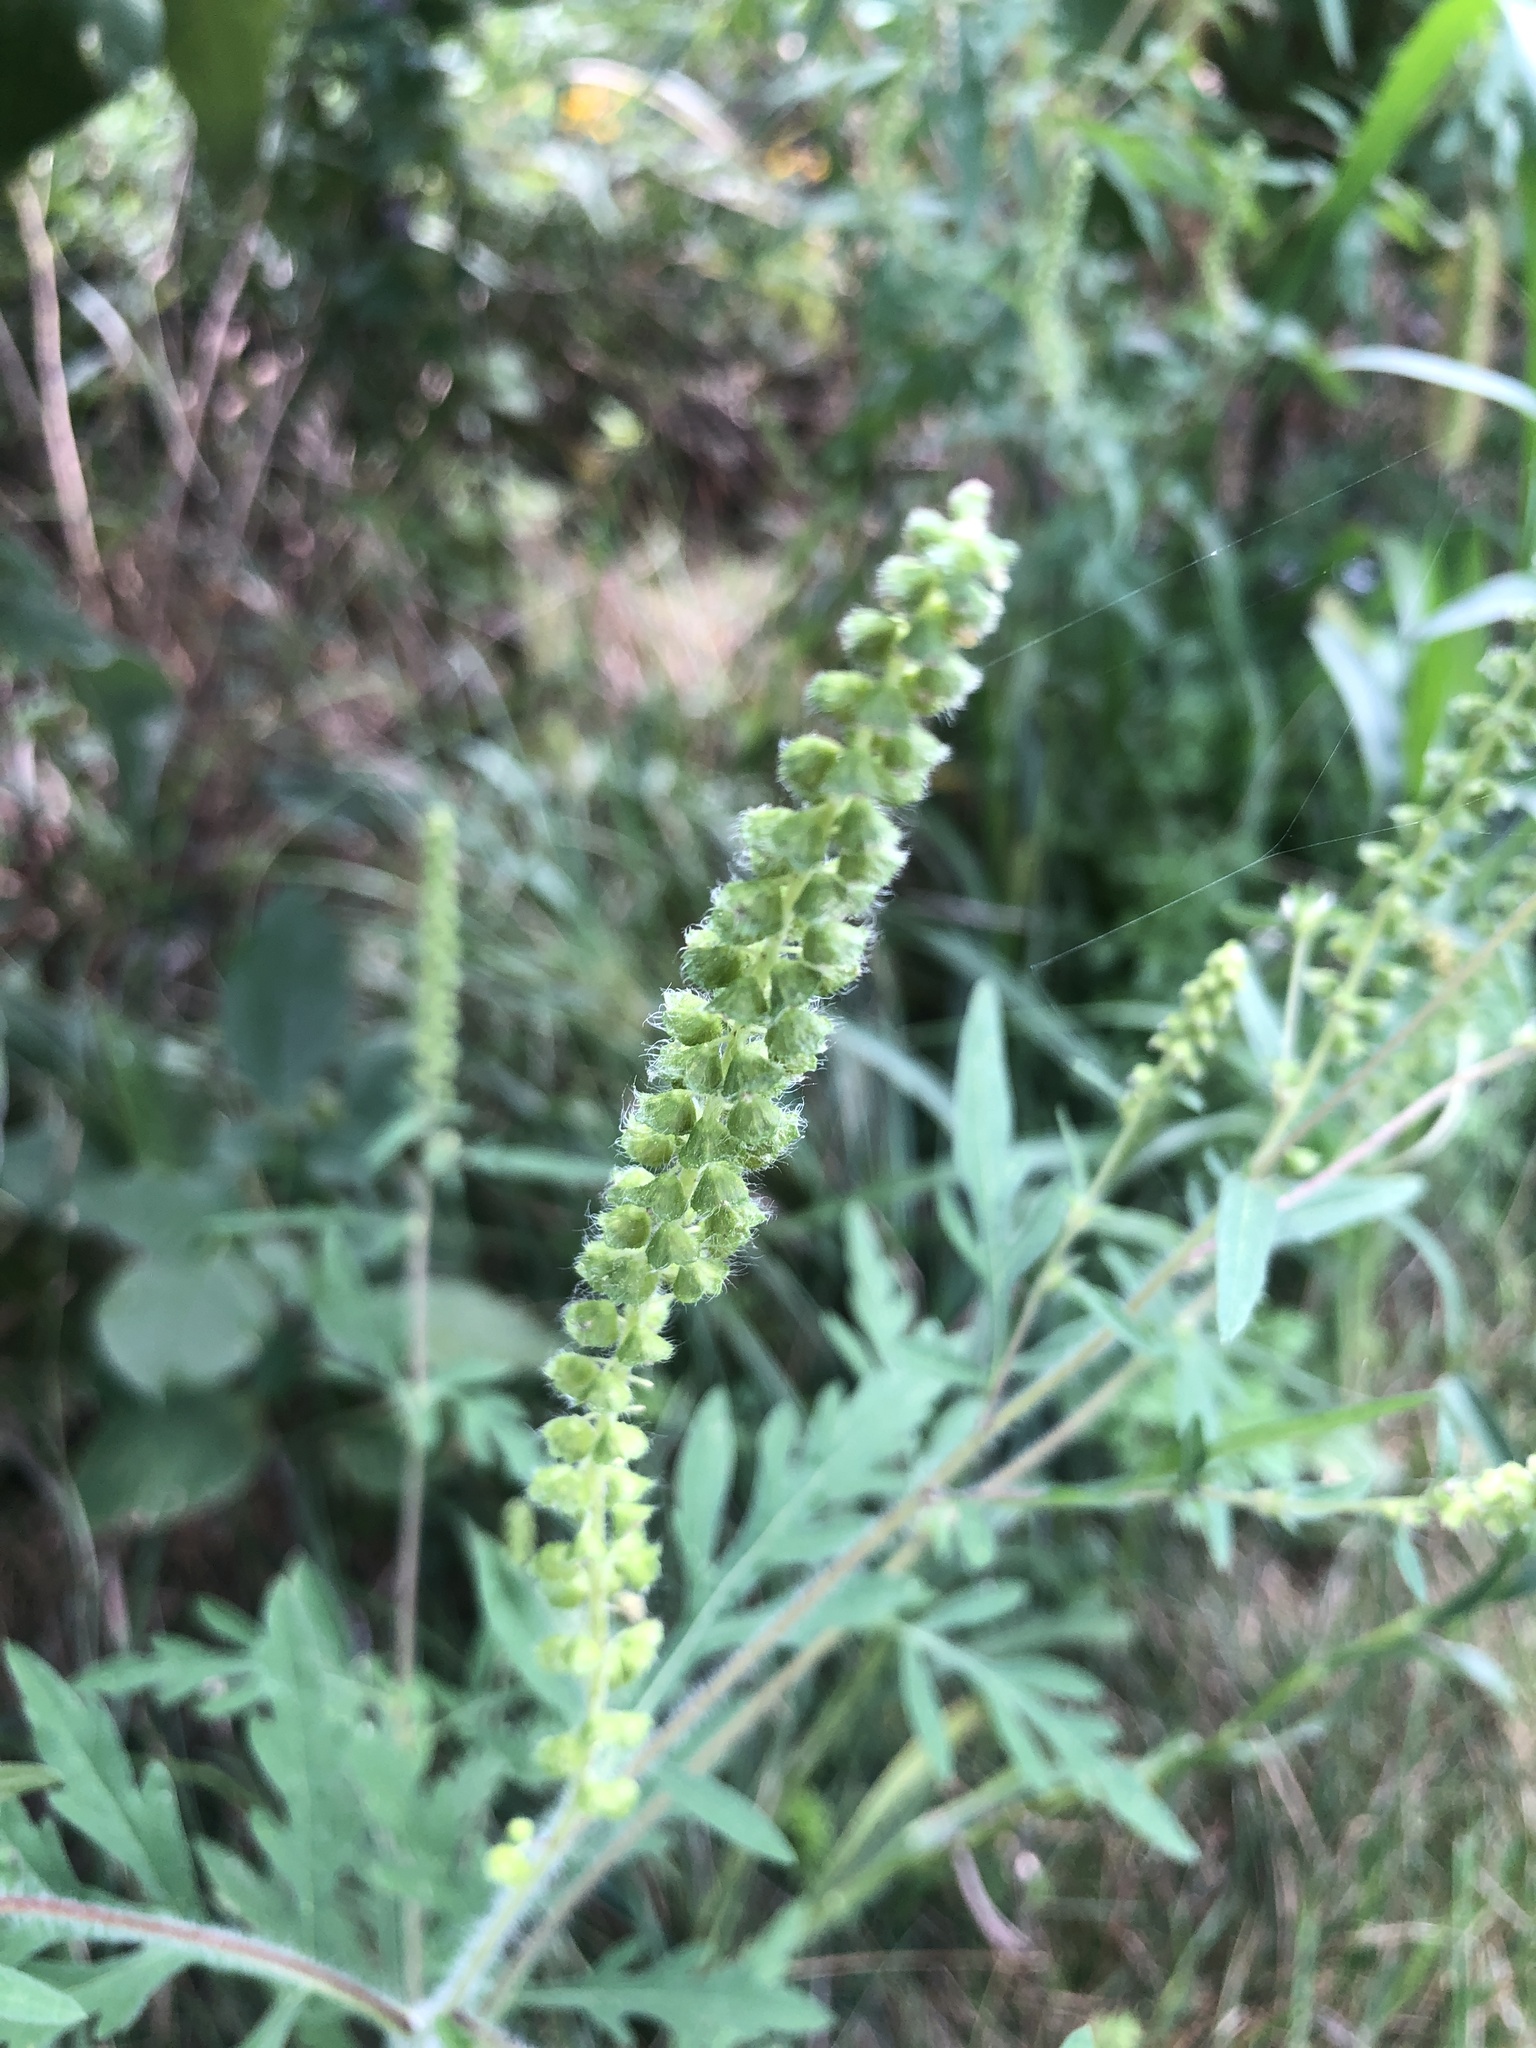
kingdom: Plantae
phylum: Tracheophyta
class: Magnoliopsida
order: Asterales
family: Asteraceae
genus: Ambrosia
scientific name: Ambrosia artemisiifolia
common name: Annual ragweed
